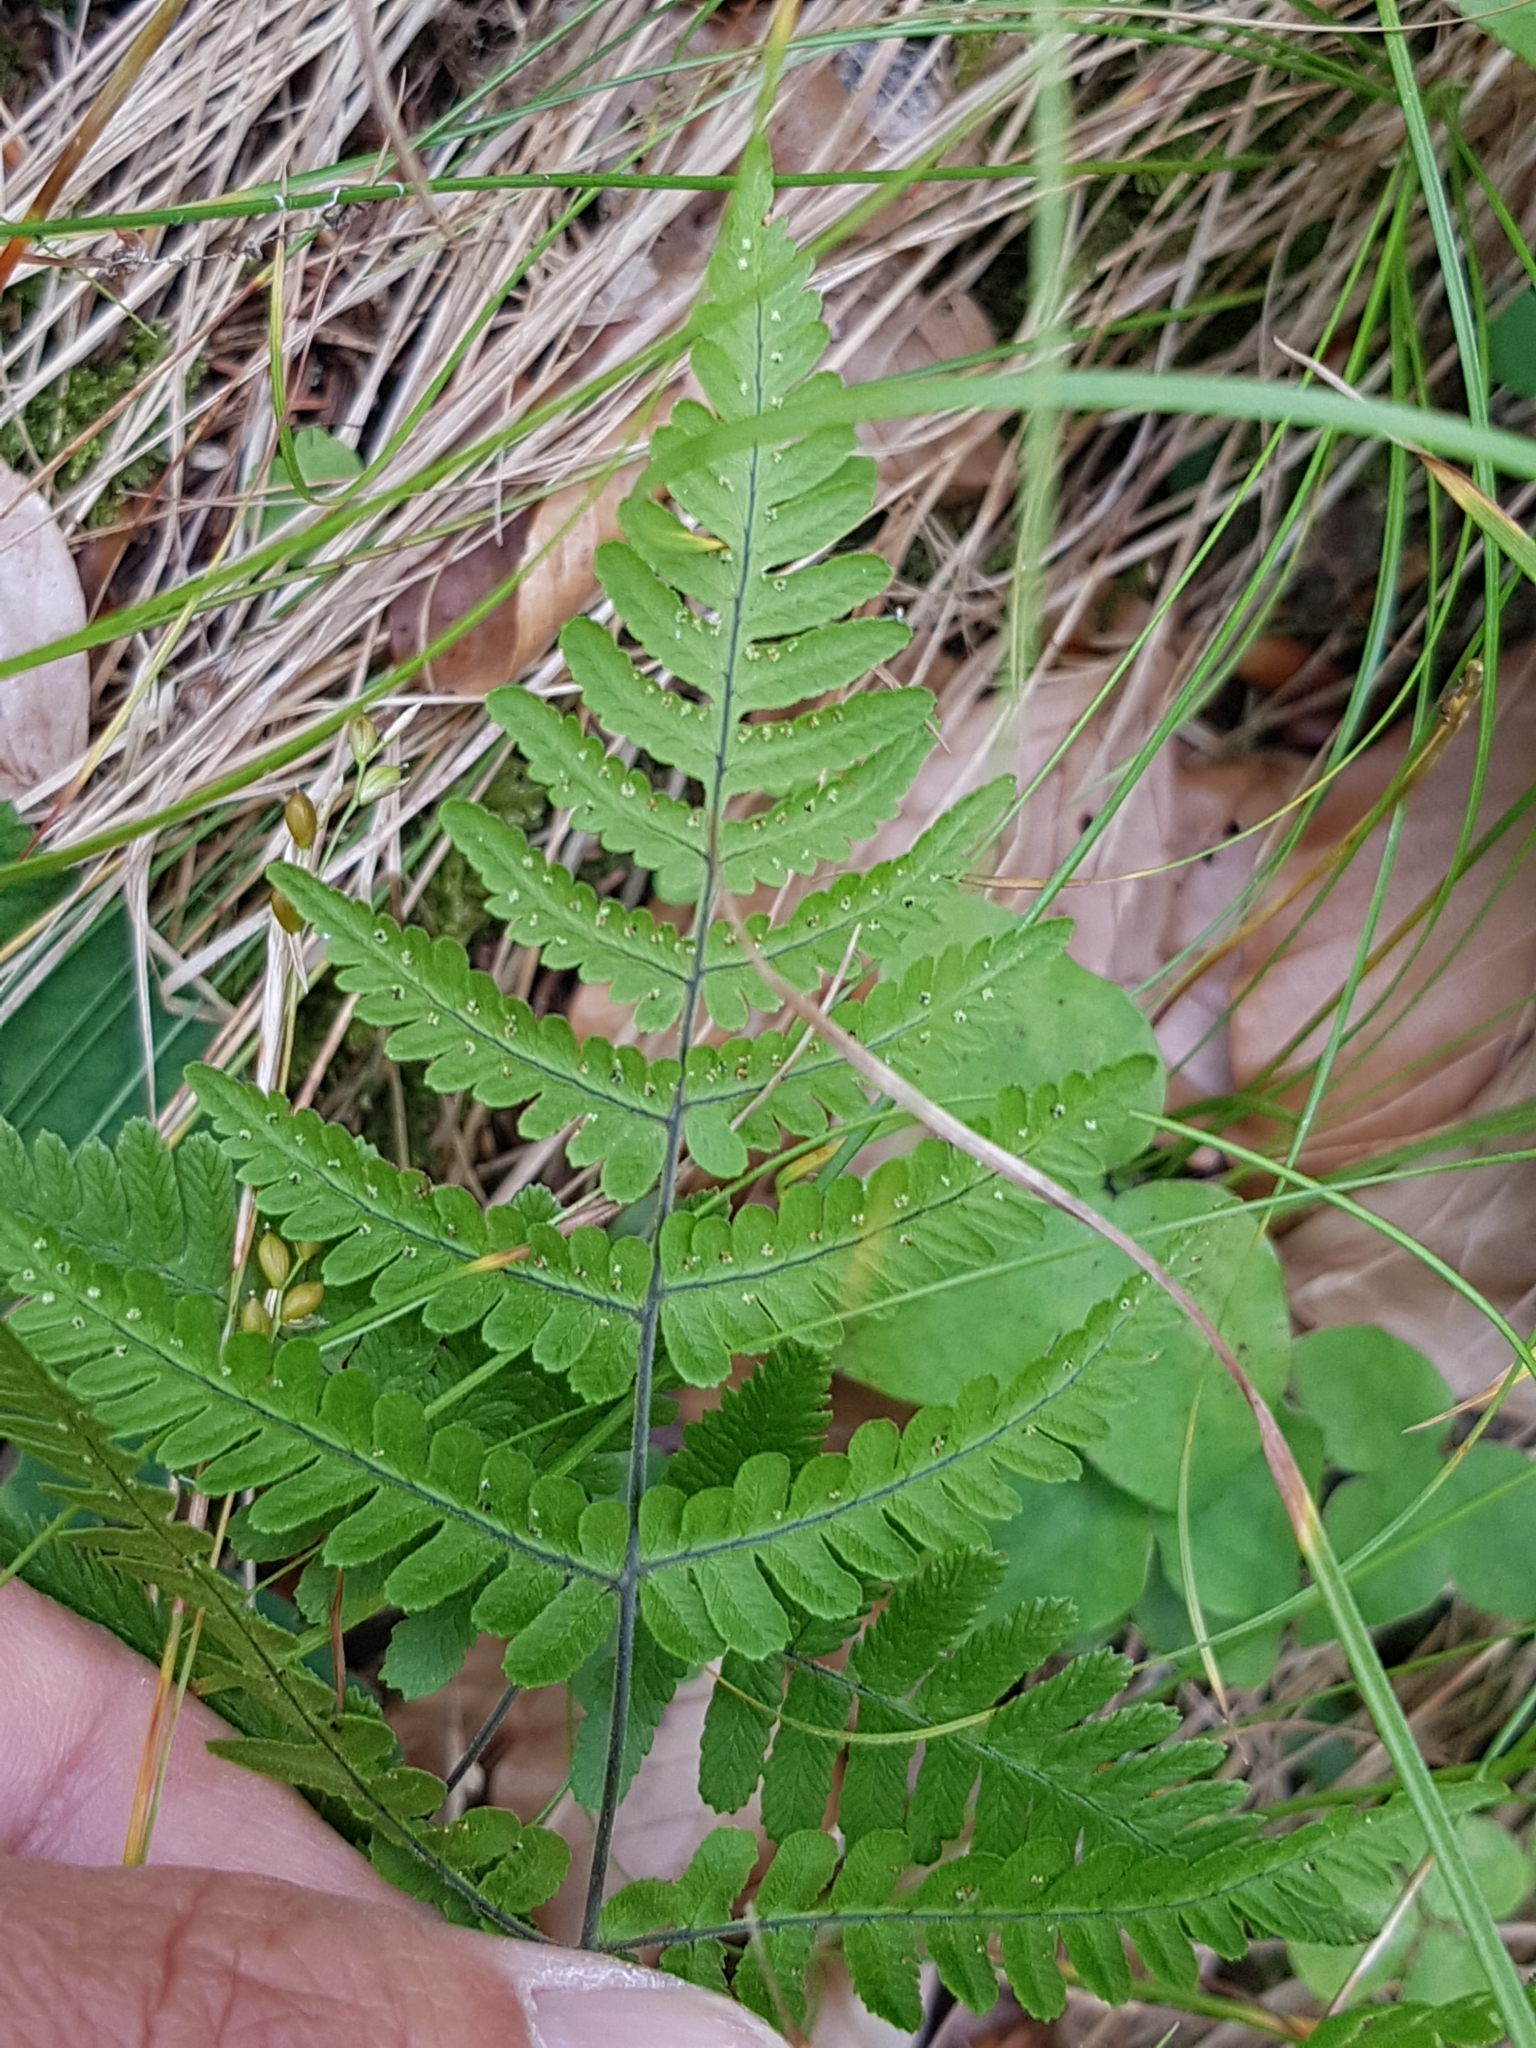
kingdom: Plantae
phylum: Tracheophyta
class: Polypodiopsida
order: Polypodiales
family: Cystopteridaceae
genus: Gymnocarpium
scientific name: Gymnocarpium robertianum
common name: Limestone fern
